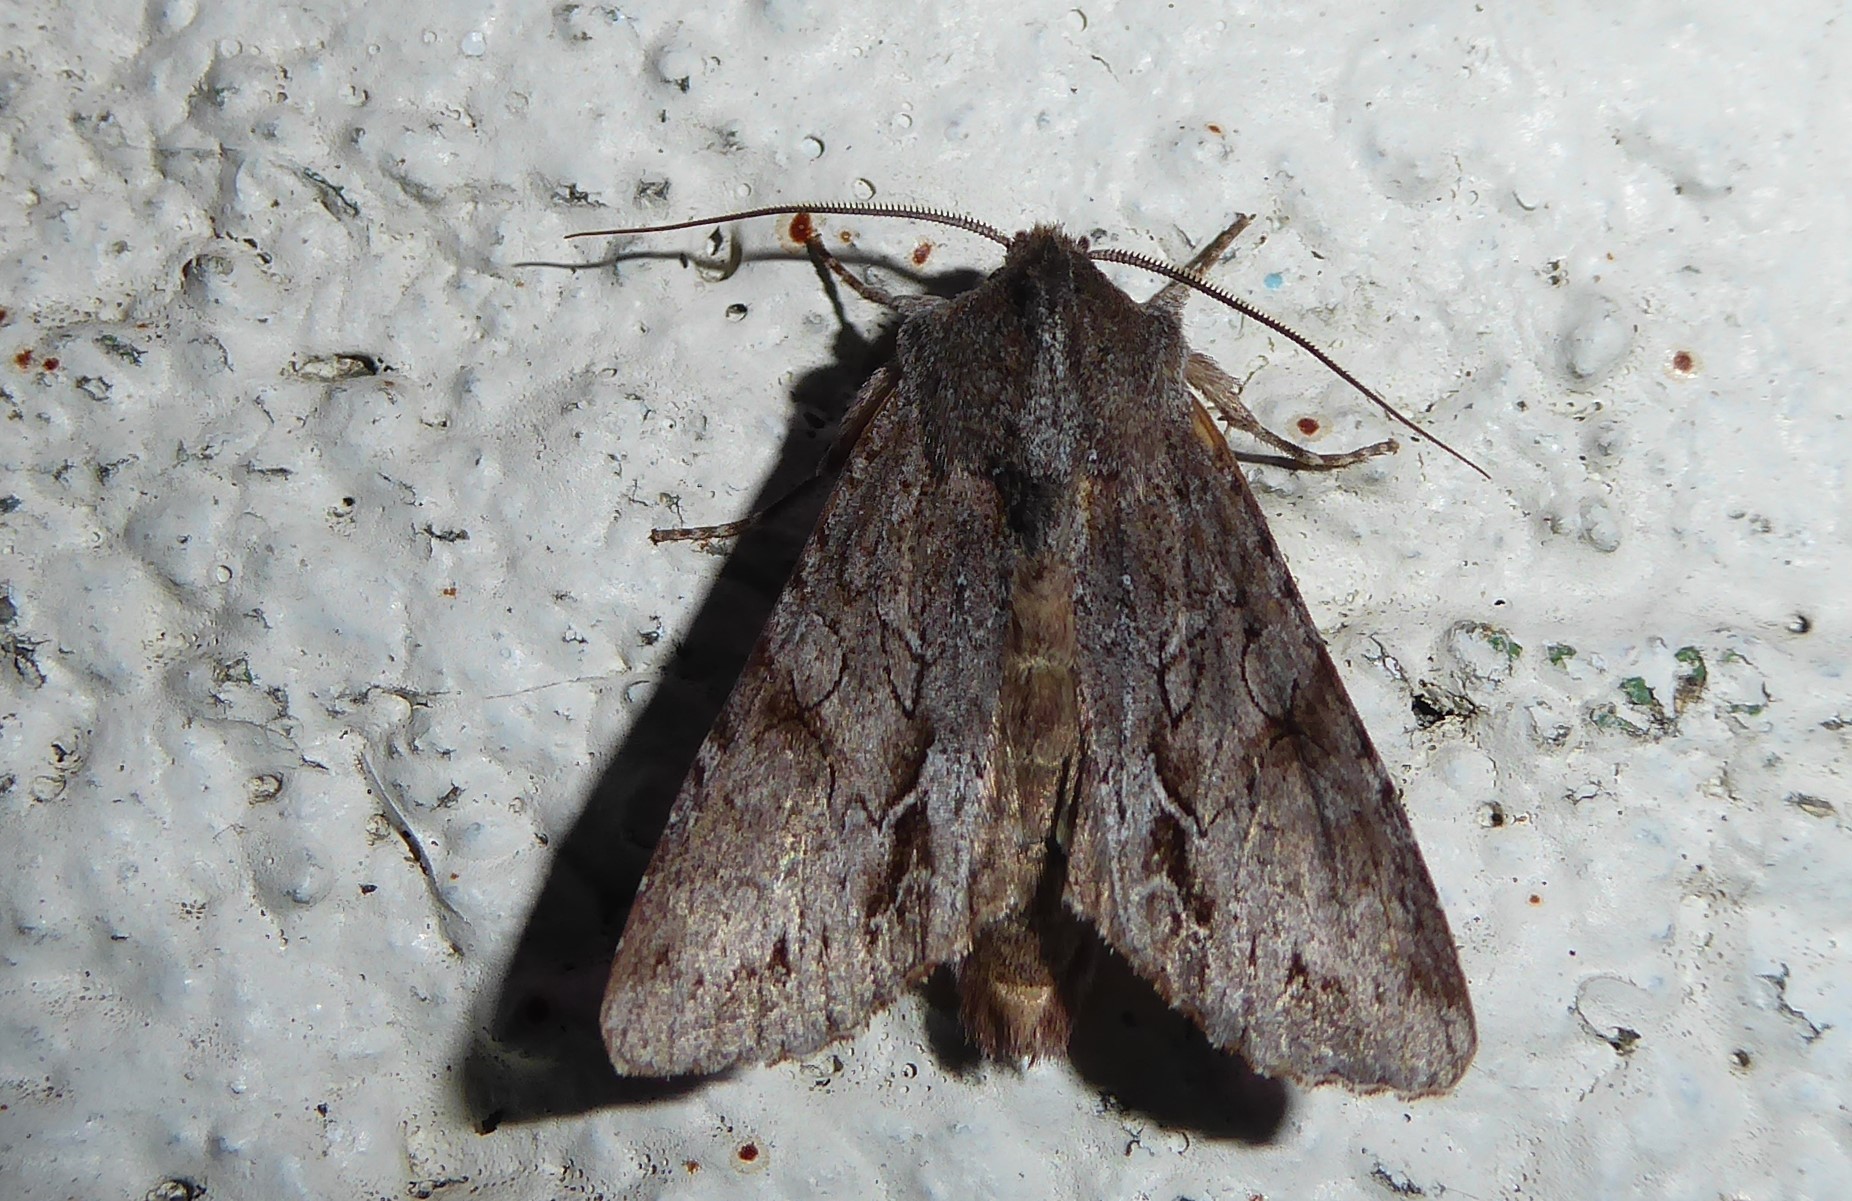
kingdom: Animalia
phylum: Arthropoda
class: Insecta
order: Lepidoptera
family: Noctuidae
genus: Ichneutica
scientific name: Ichneutica
